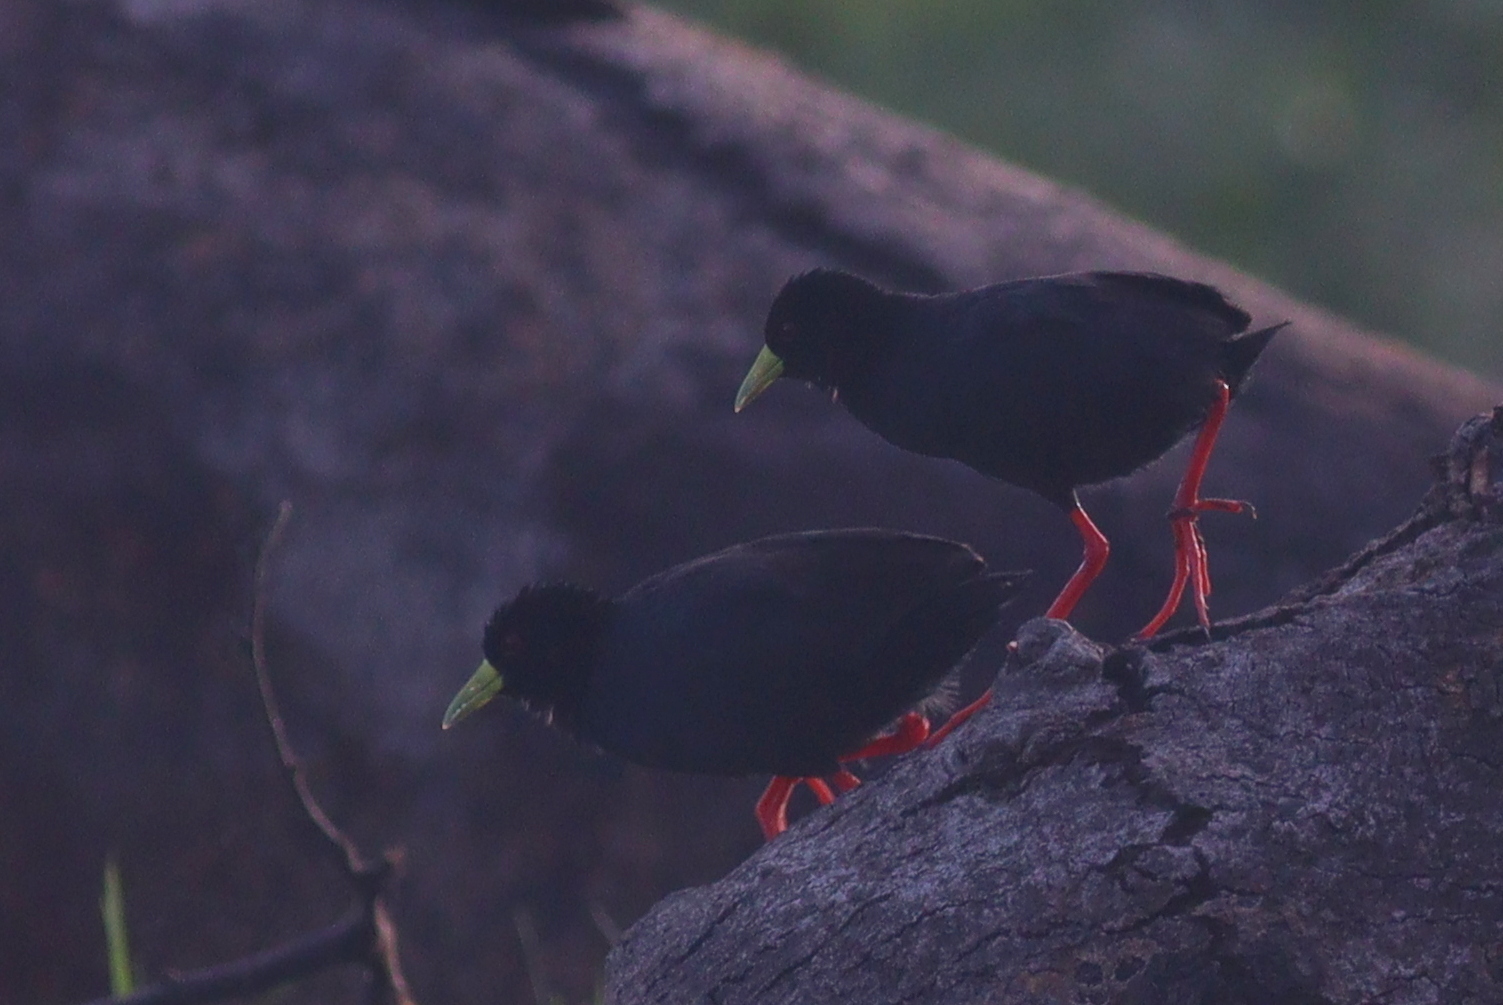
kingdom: Animalia
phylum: Chordata
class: Aves
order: Gruiformes
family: Rallidae
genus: Amaurornis
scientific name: Amaurornis flavirostra
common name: Black crake
